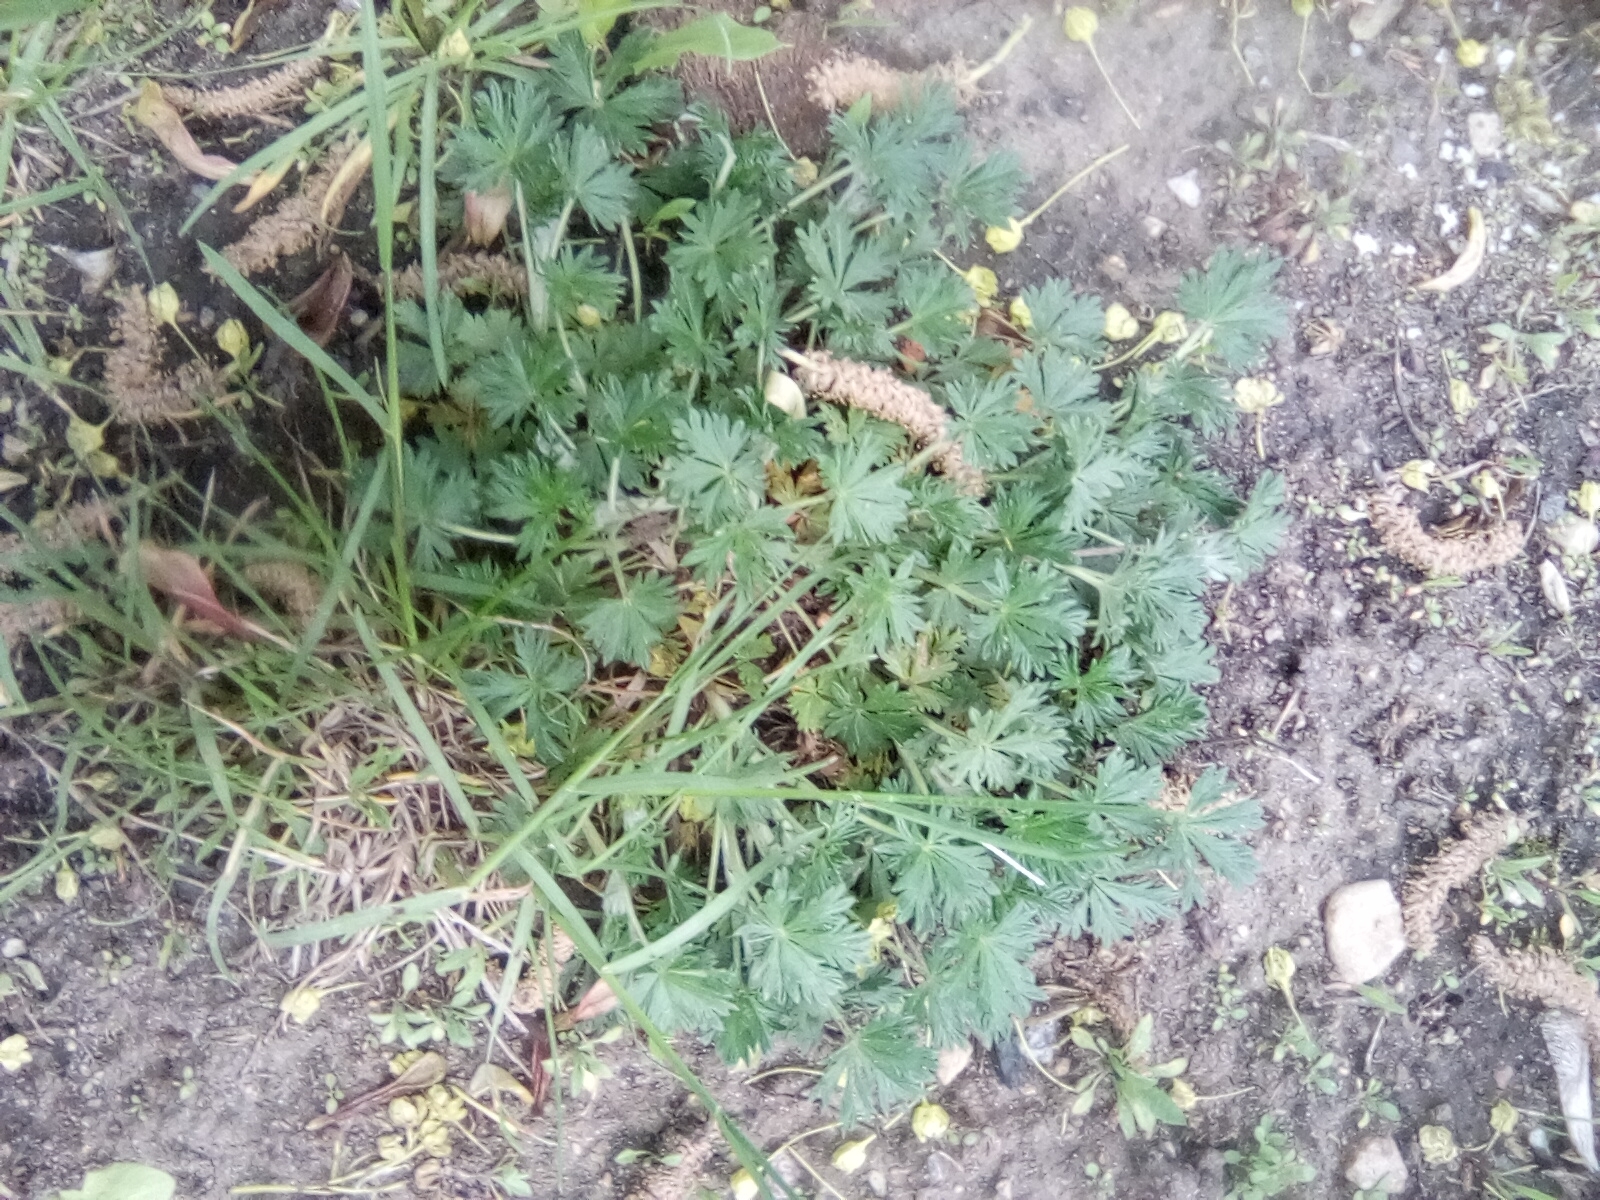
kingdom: Plantae
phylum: Tracheophyta
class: Magnoliopsida
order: Rosales
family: Rosaceae
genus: Potentilla
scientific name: Potentilla argentea
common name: Hoary cinquefoil
